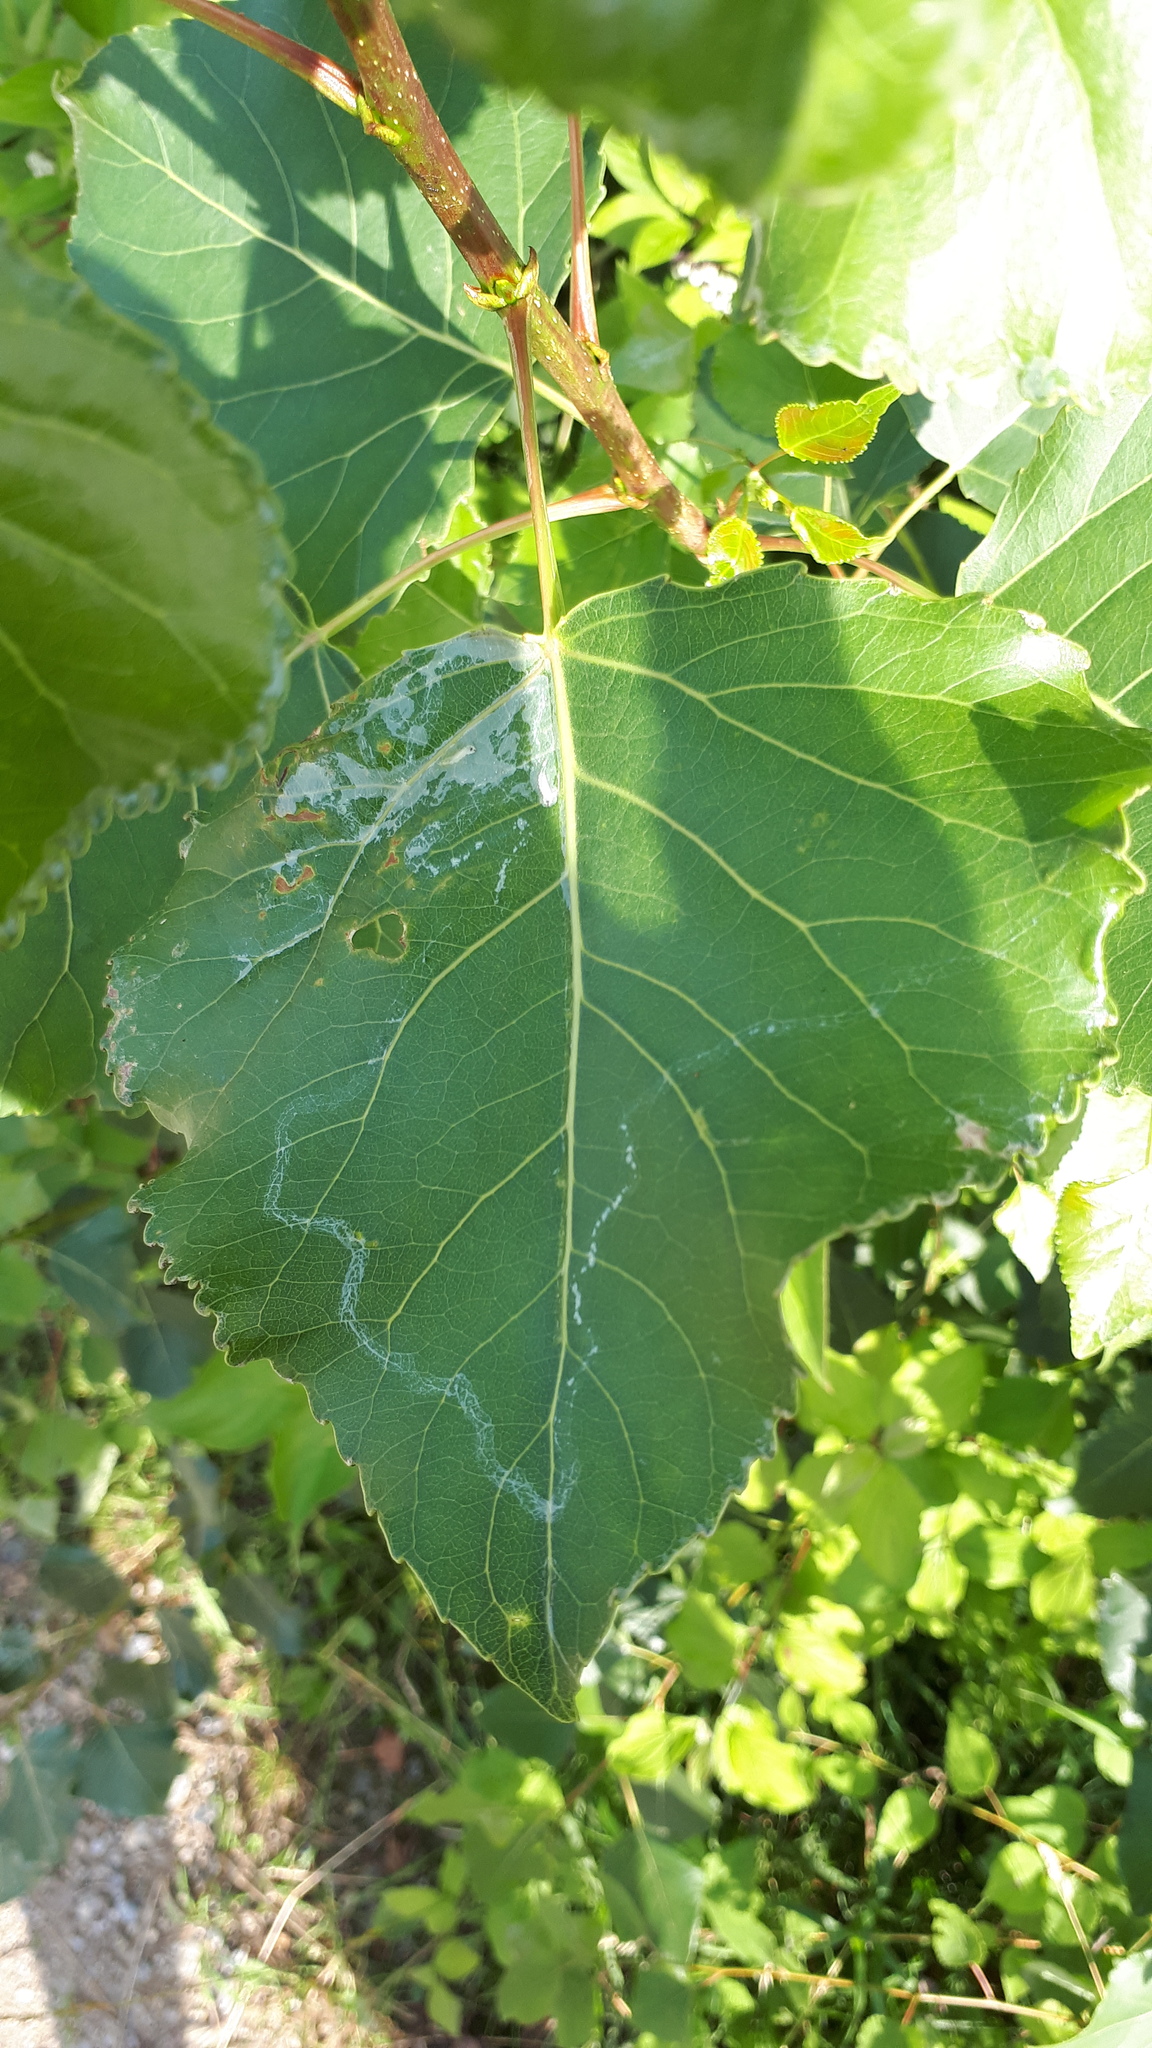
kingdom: Animalia
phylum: Arthropoda
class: Insecta
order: Lepidoptera
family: Gracillariidae
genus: Phyllocnistis
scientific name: Phyllocnistis unipunctella
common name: Poplar bent-wing
